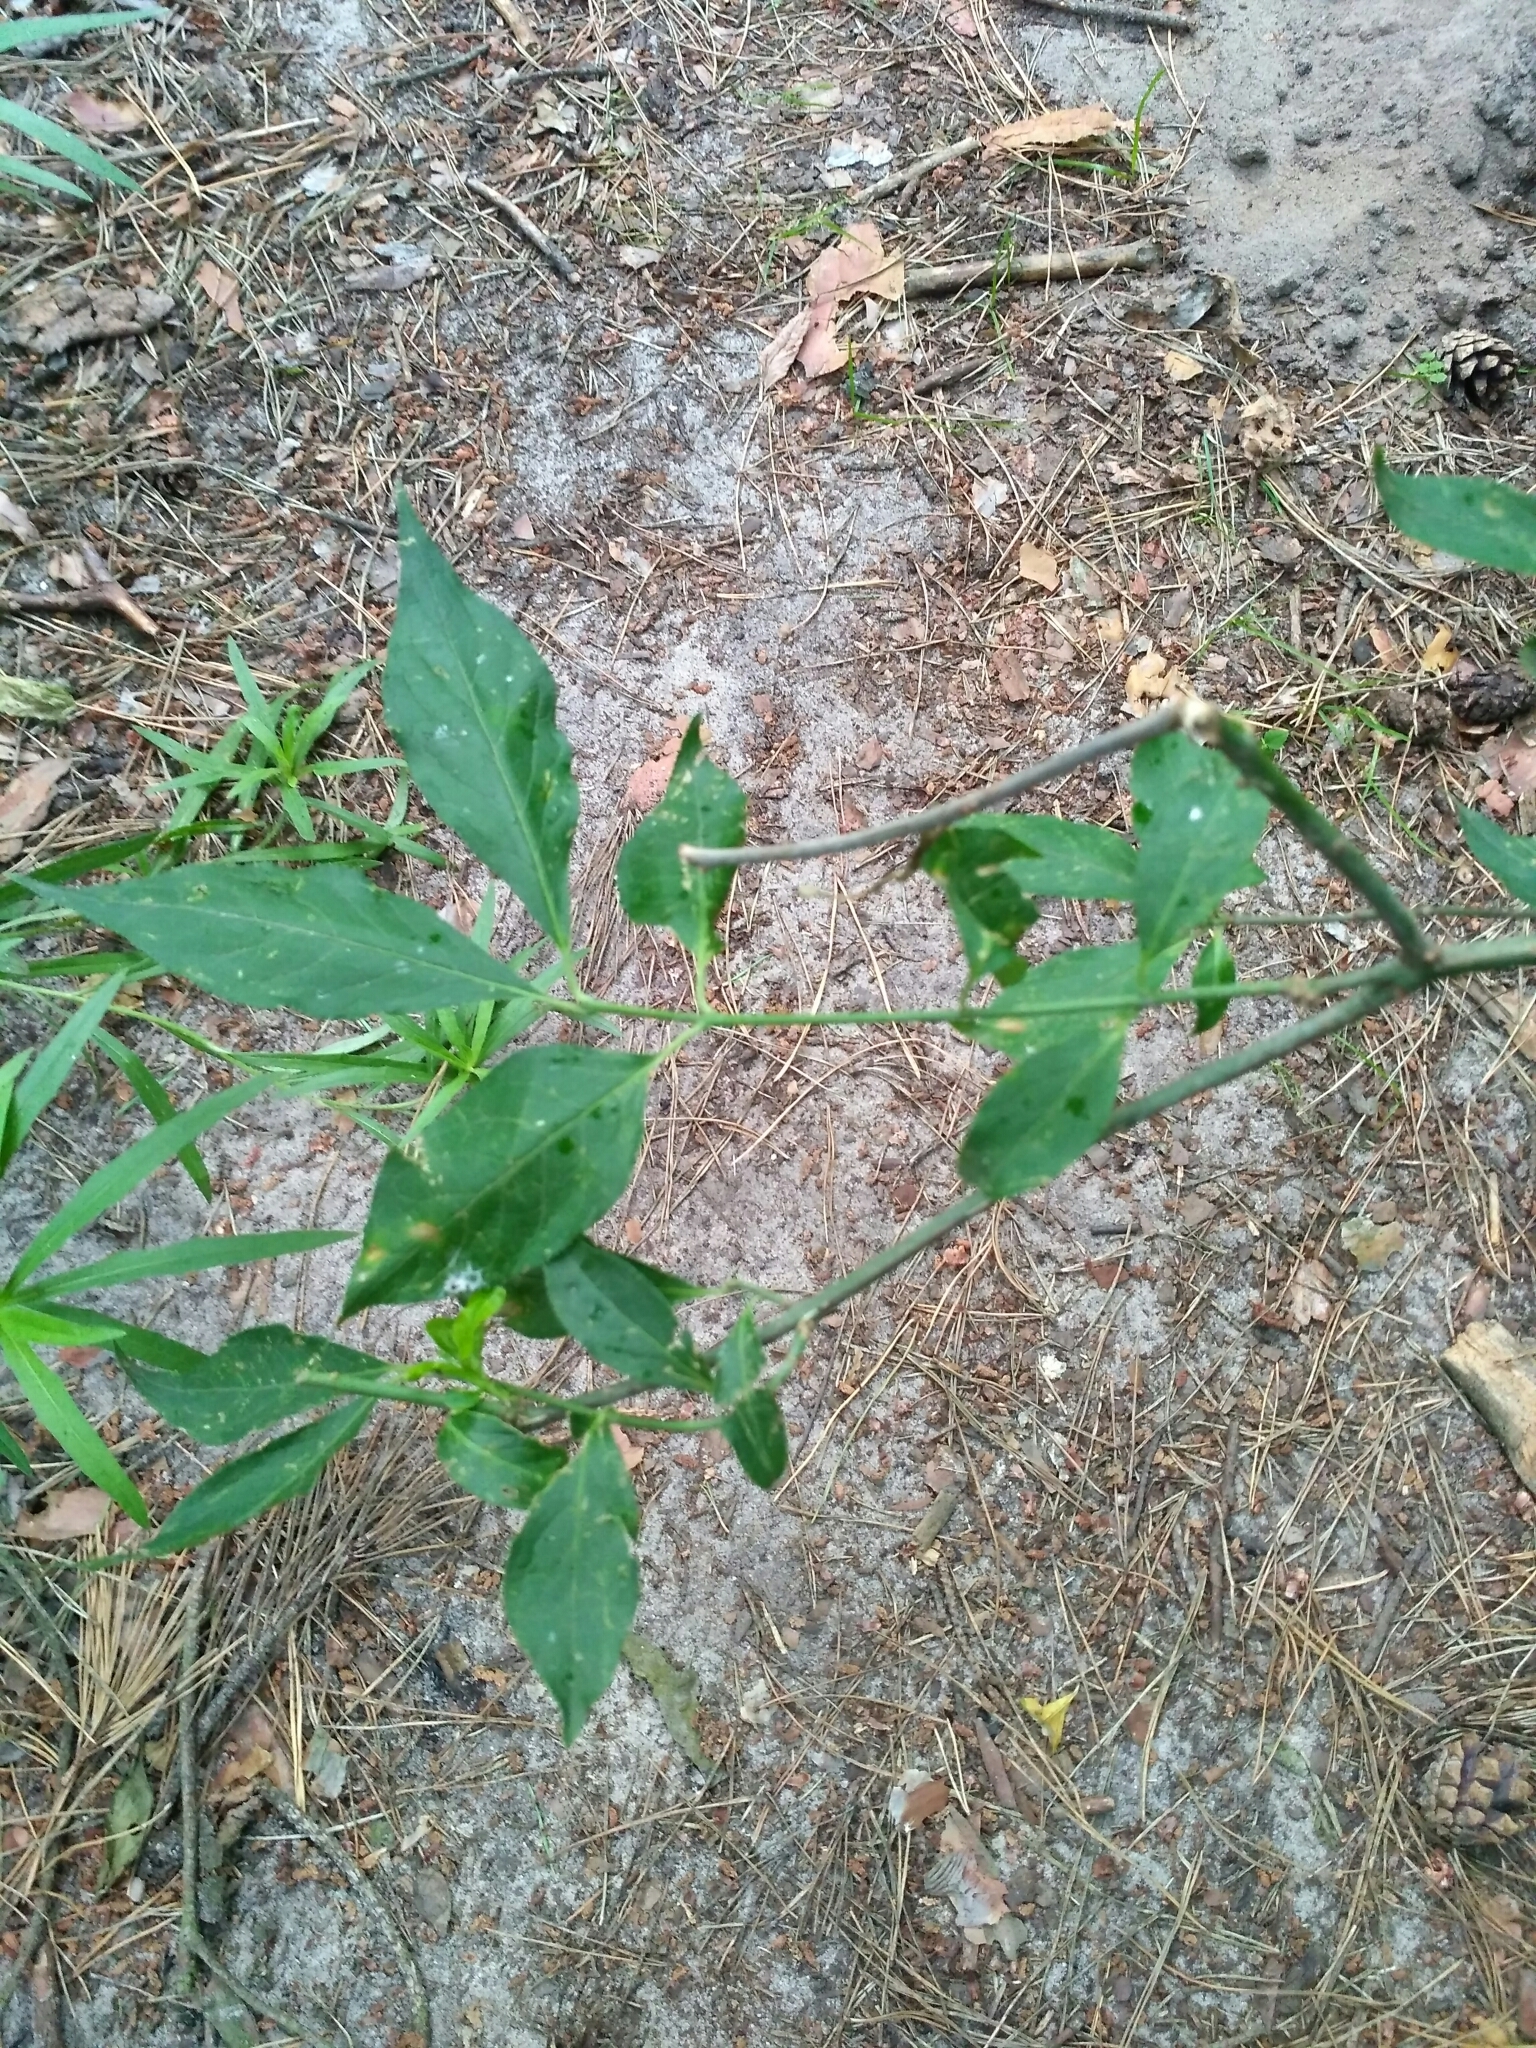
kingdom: Plantae
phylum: Tracheophyta
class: Magnoliopsida
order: Celastrales
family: Celastraceae
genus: Euonymus
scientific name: Euonymus europaeus
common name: Spindle
